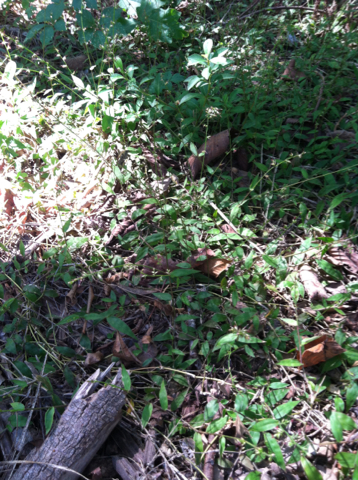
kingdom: Plantae
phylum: Tracheophyta
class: Liliopsida
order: Poales
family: Poaceae
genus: Oplismenus
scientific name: Oplismenus hirtellus
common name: Basketgrass
